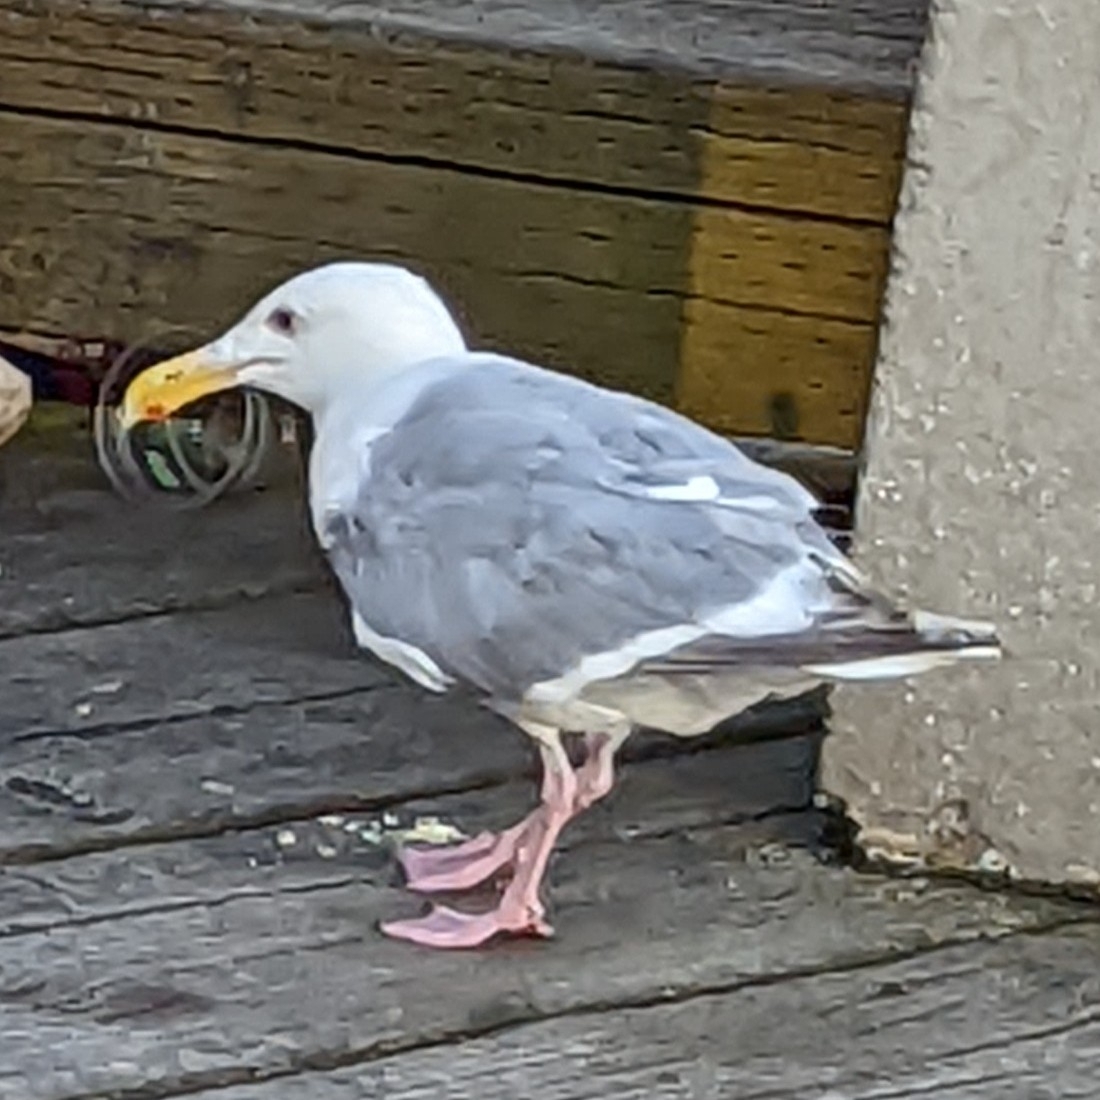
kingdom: Animalia
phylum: Chordata
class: Aves
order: Charadriiformes
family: Laridae
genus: Larus
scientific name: Larus
